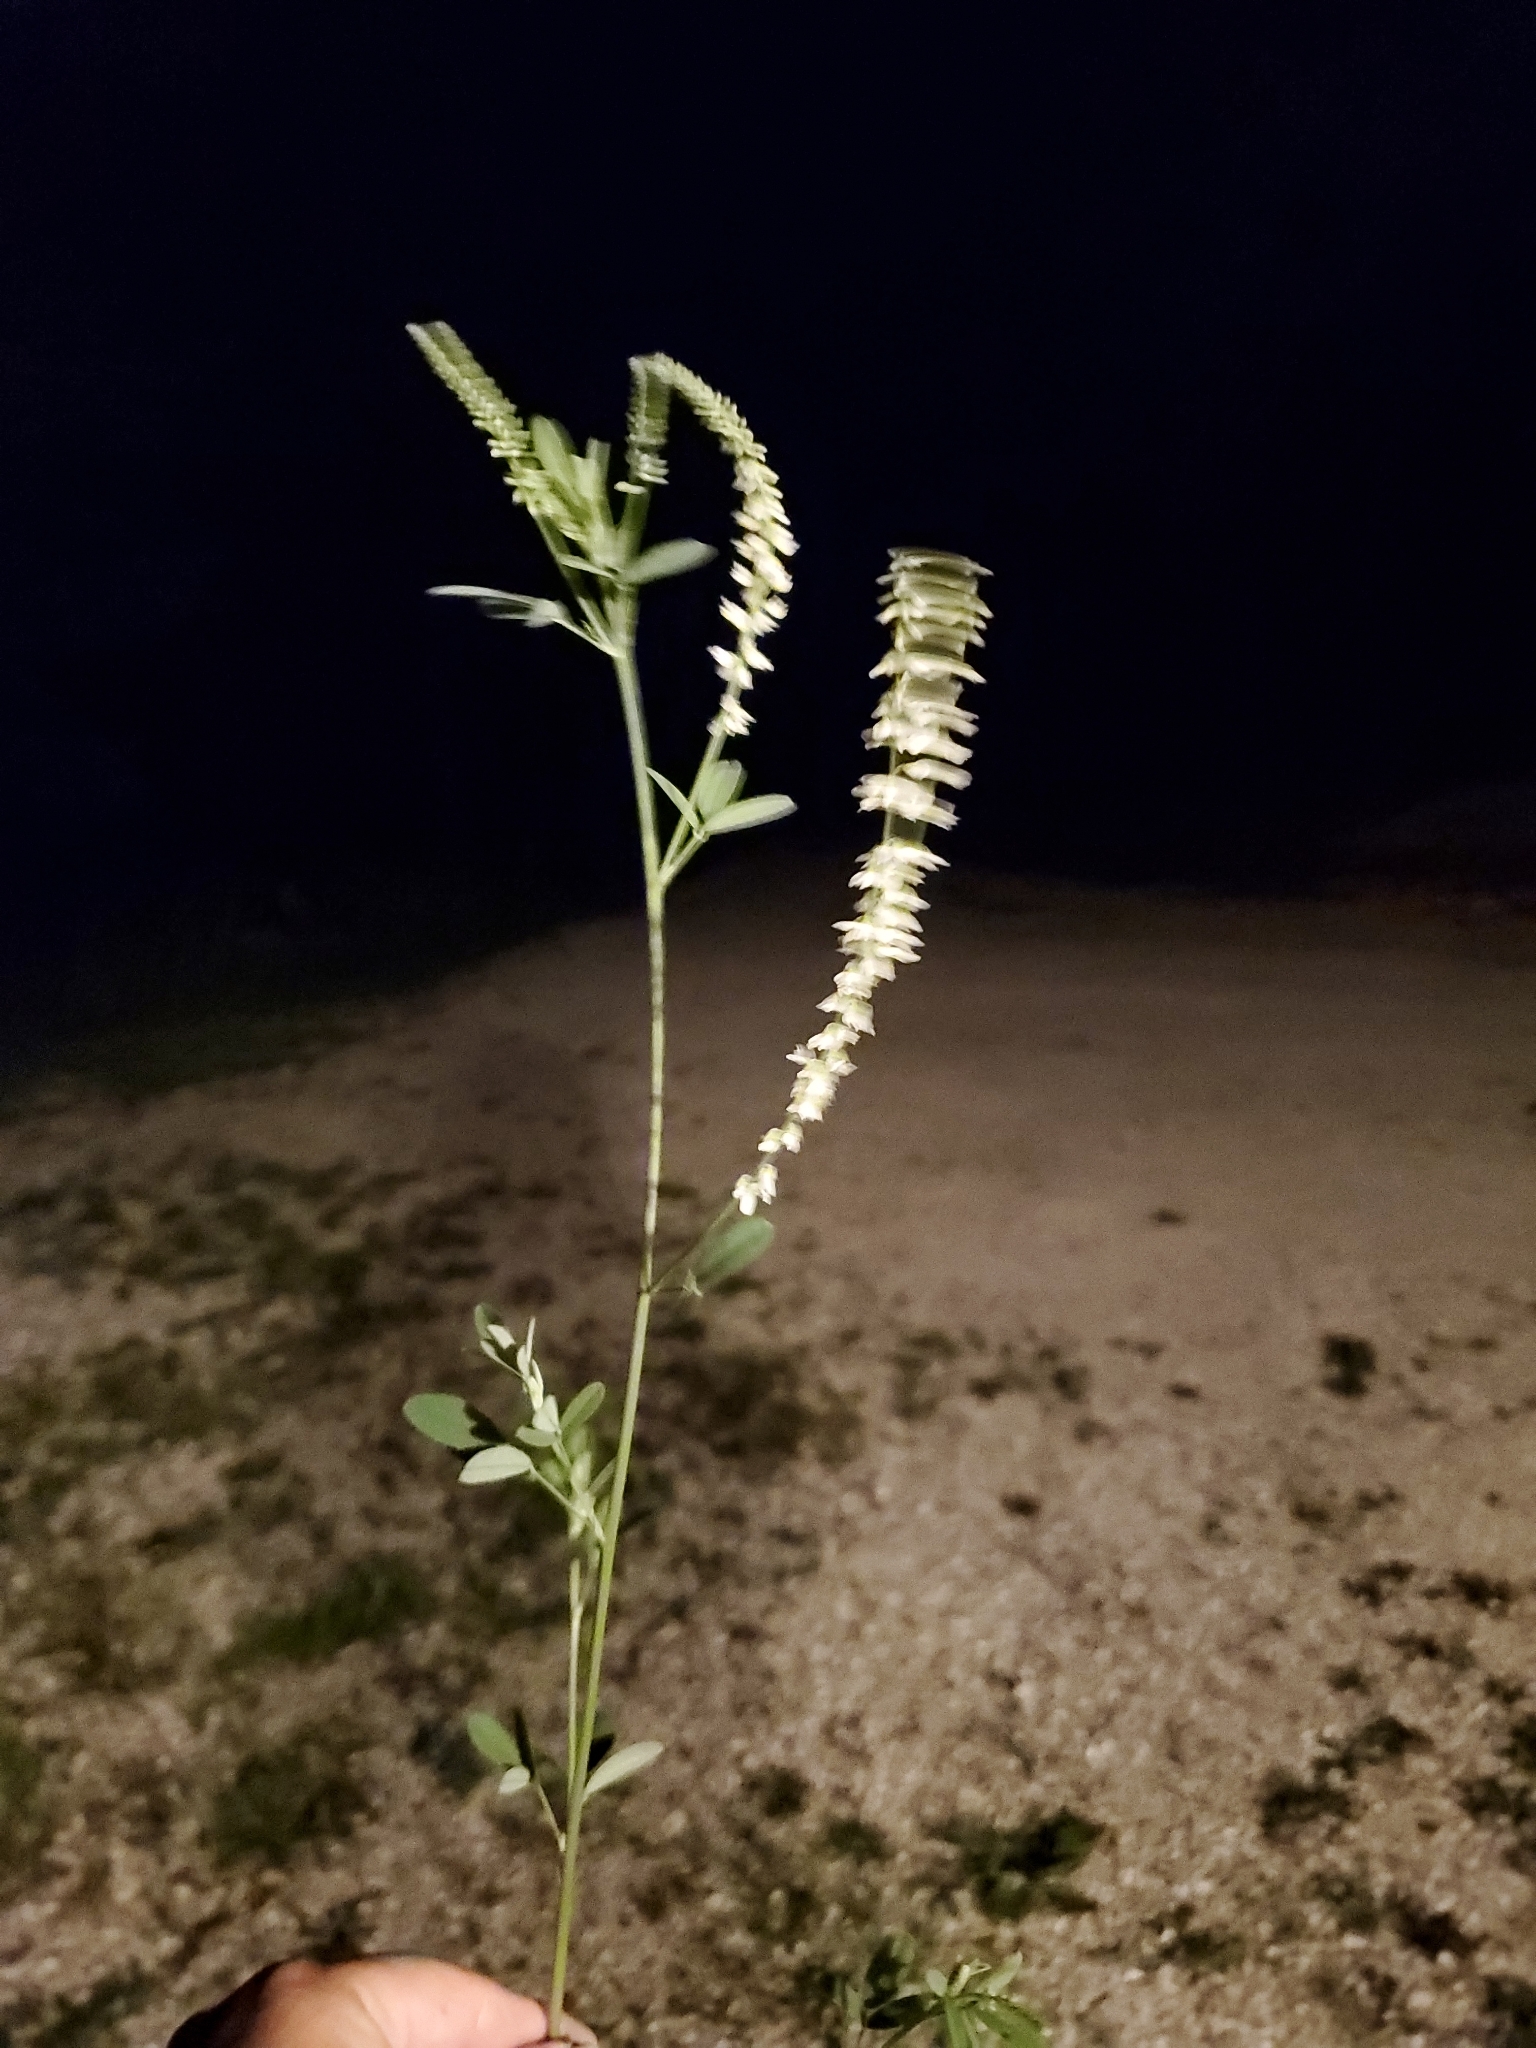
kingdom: Plantae
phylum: Tracheophyta
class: Magnoliopsida
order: Fabales
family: Fabaceae
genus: Melilotus
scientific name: Melilotus albus
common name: White melilot
